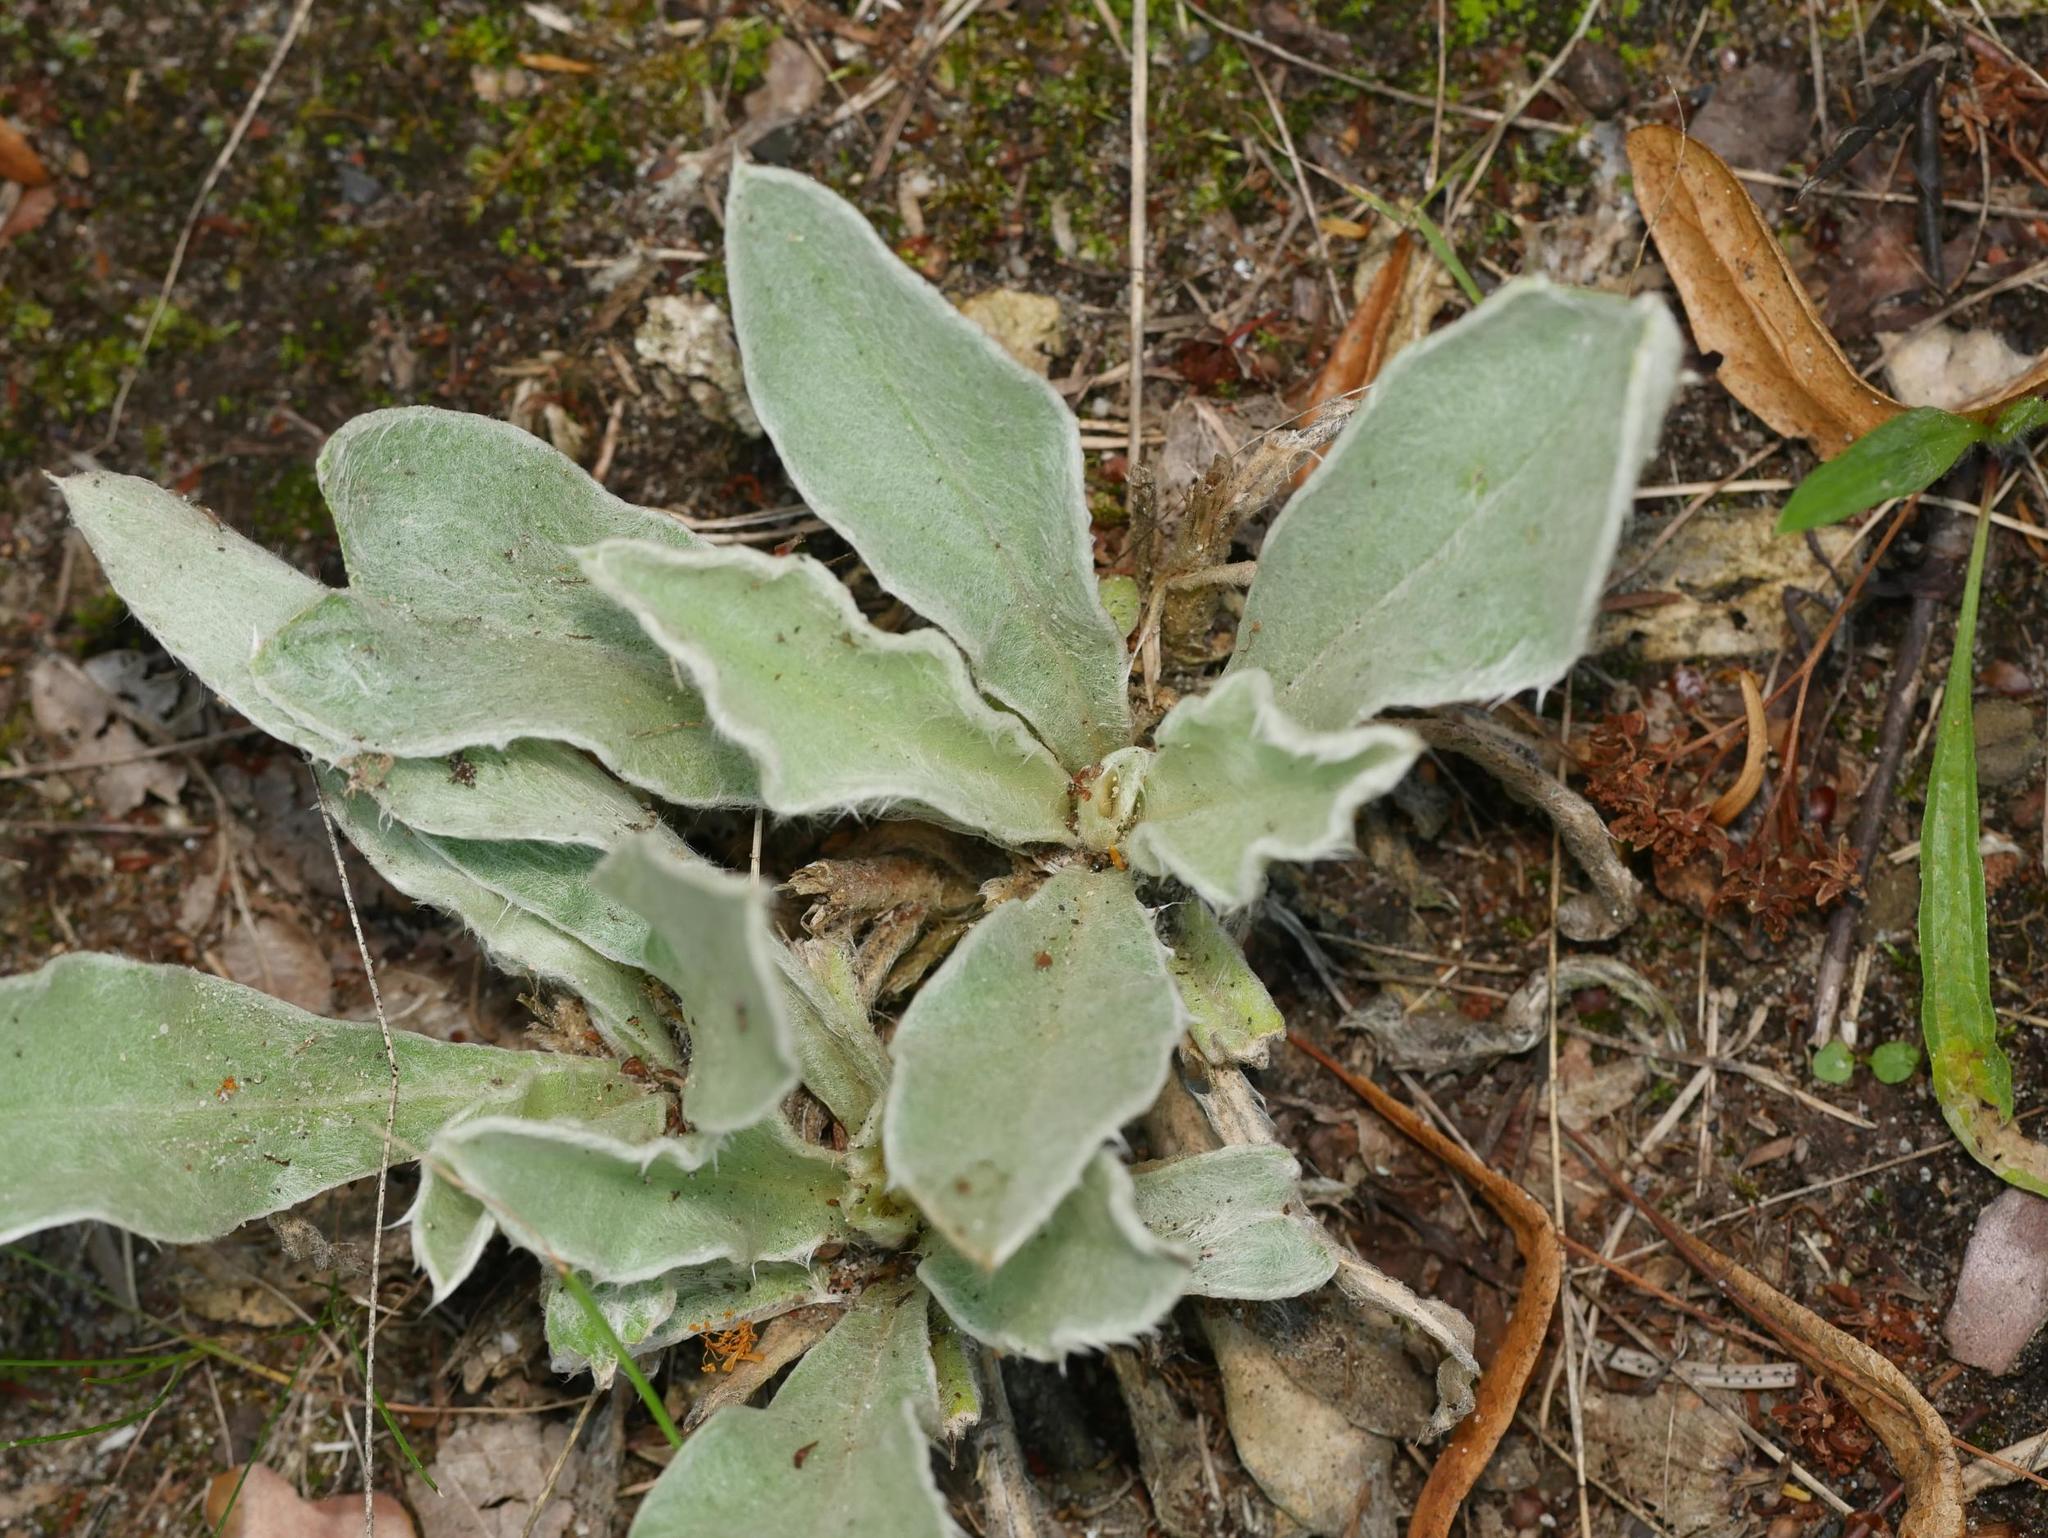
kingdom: Plantae
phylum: Tracheophyta
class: Magnoliopsida
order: Caryophyllales
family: Caryophyllaceae
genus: Silene
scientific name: Silene coronaria
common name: Rose campion
